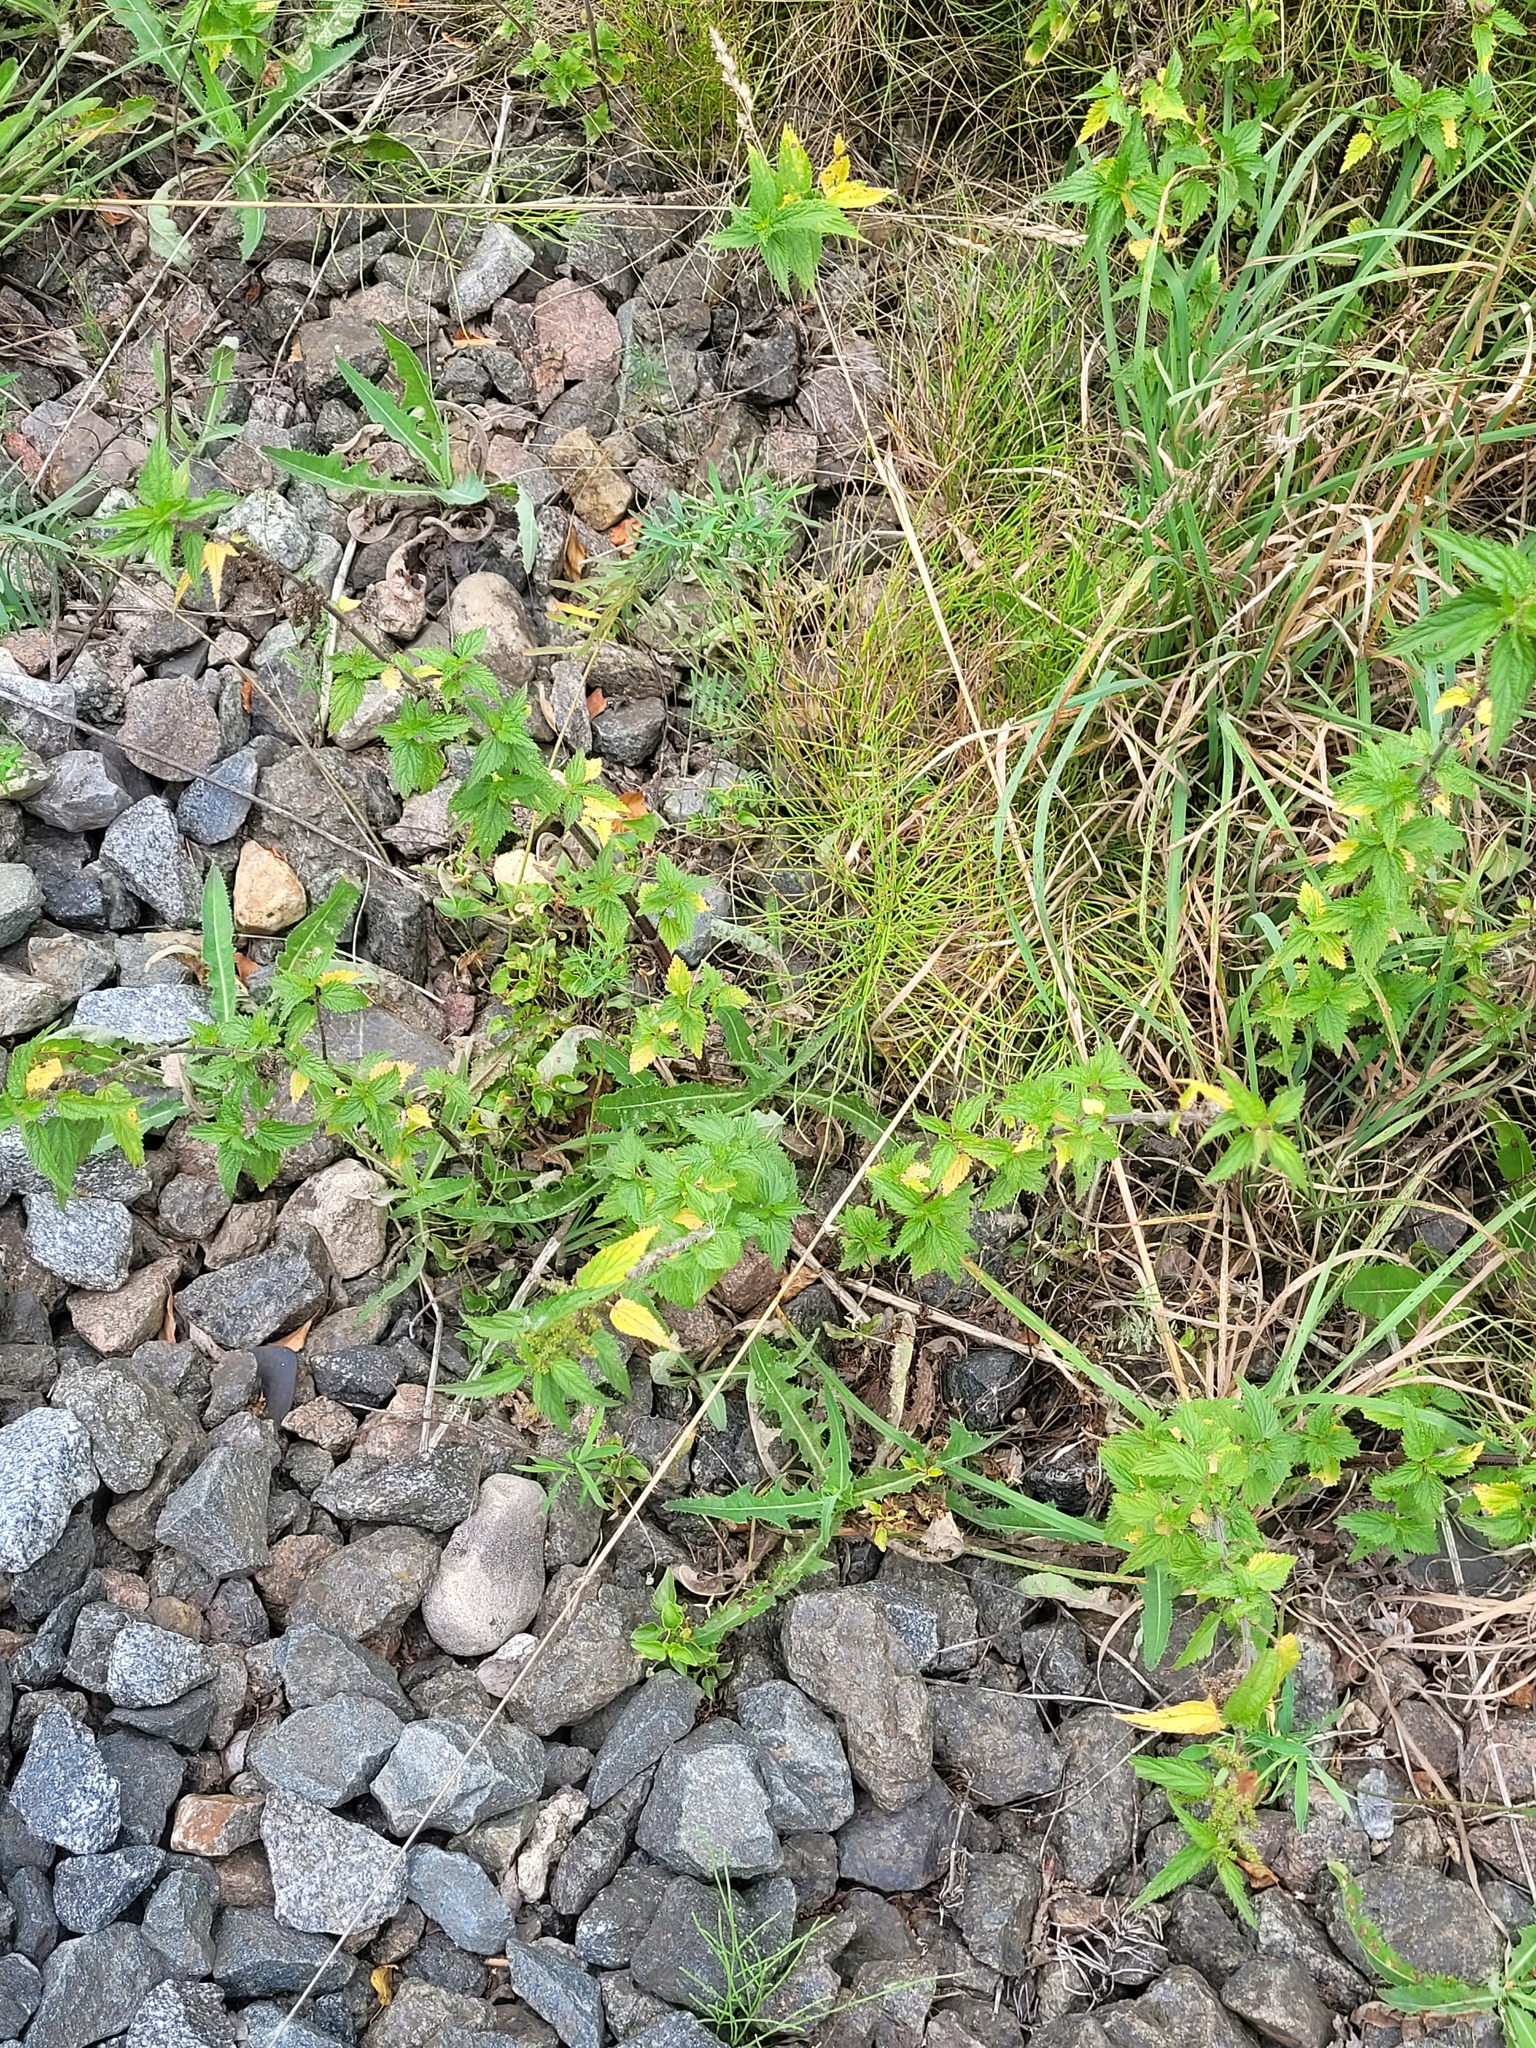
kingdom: Plantae
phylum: Tracheophyta
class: Magnoliopsida
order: Rosales
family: Urticaceae
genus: Urtica
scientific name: Urtica dioica
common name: Common nettle
